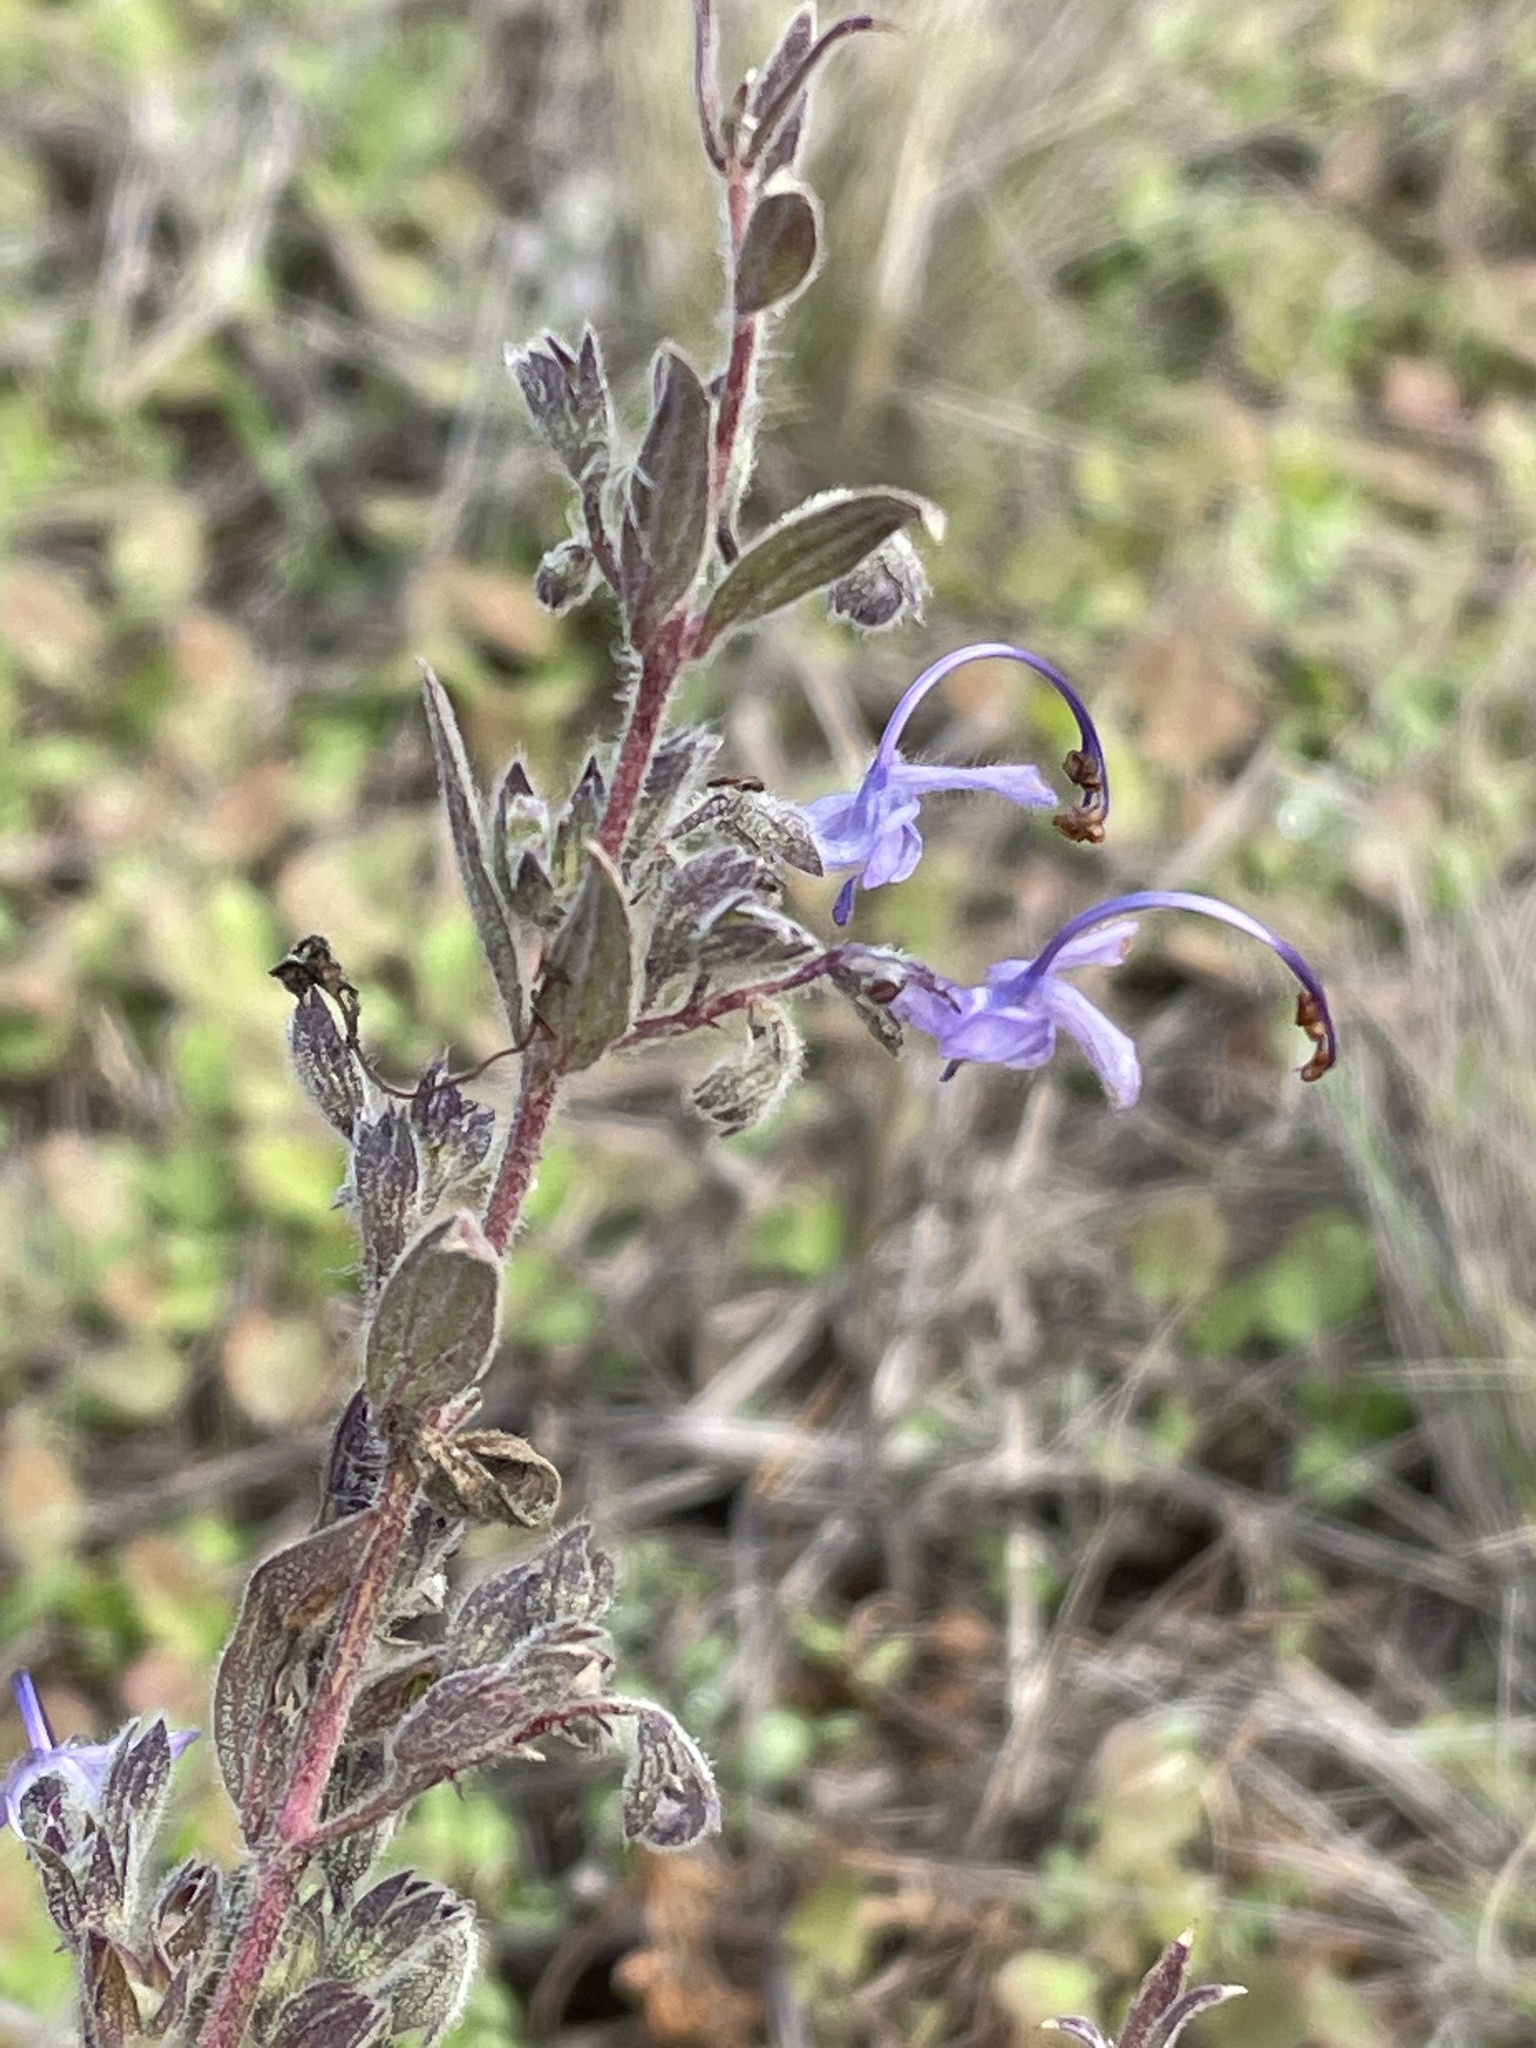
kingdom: Plantae
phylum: Tracheophyta
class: Magnoliopsida
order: Lamiales
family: Lamiaceae
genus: Trichostema
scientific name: Trichostema lanceolatum
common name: Vinegar-weed
